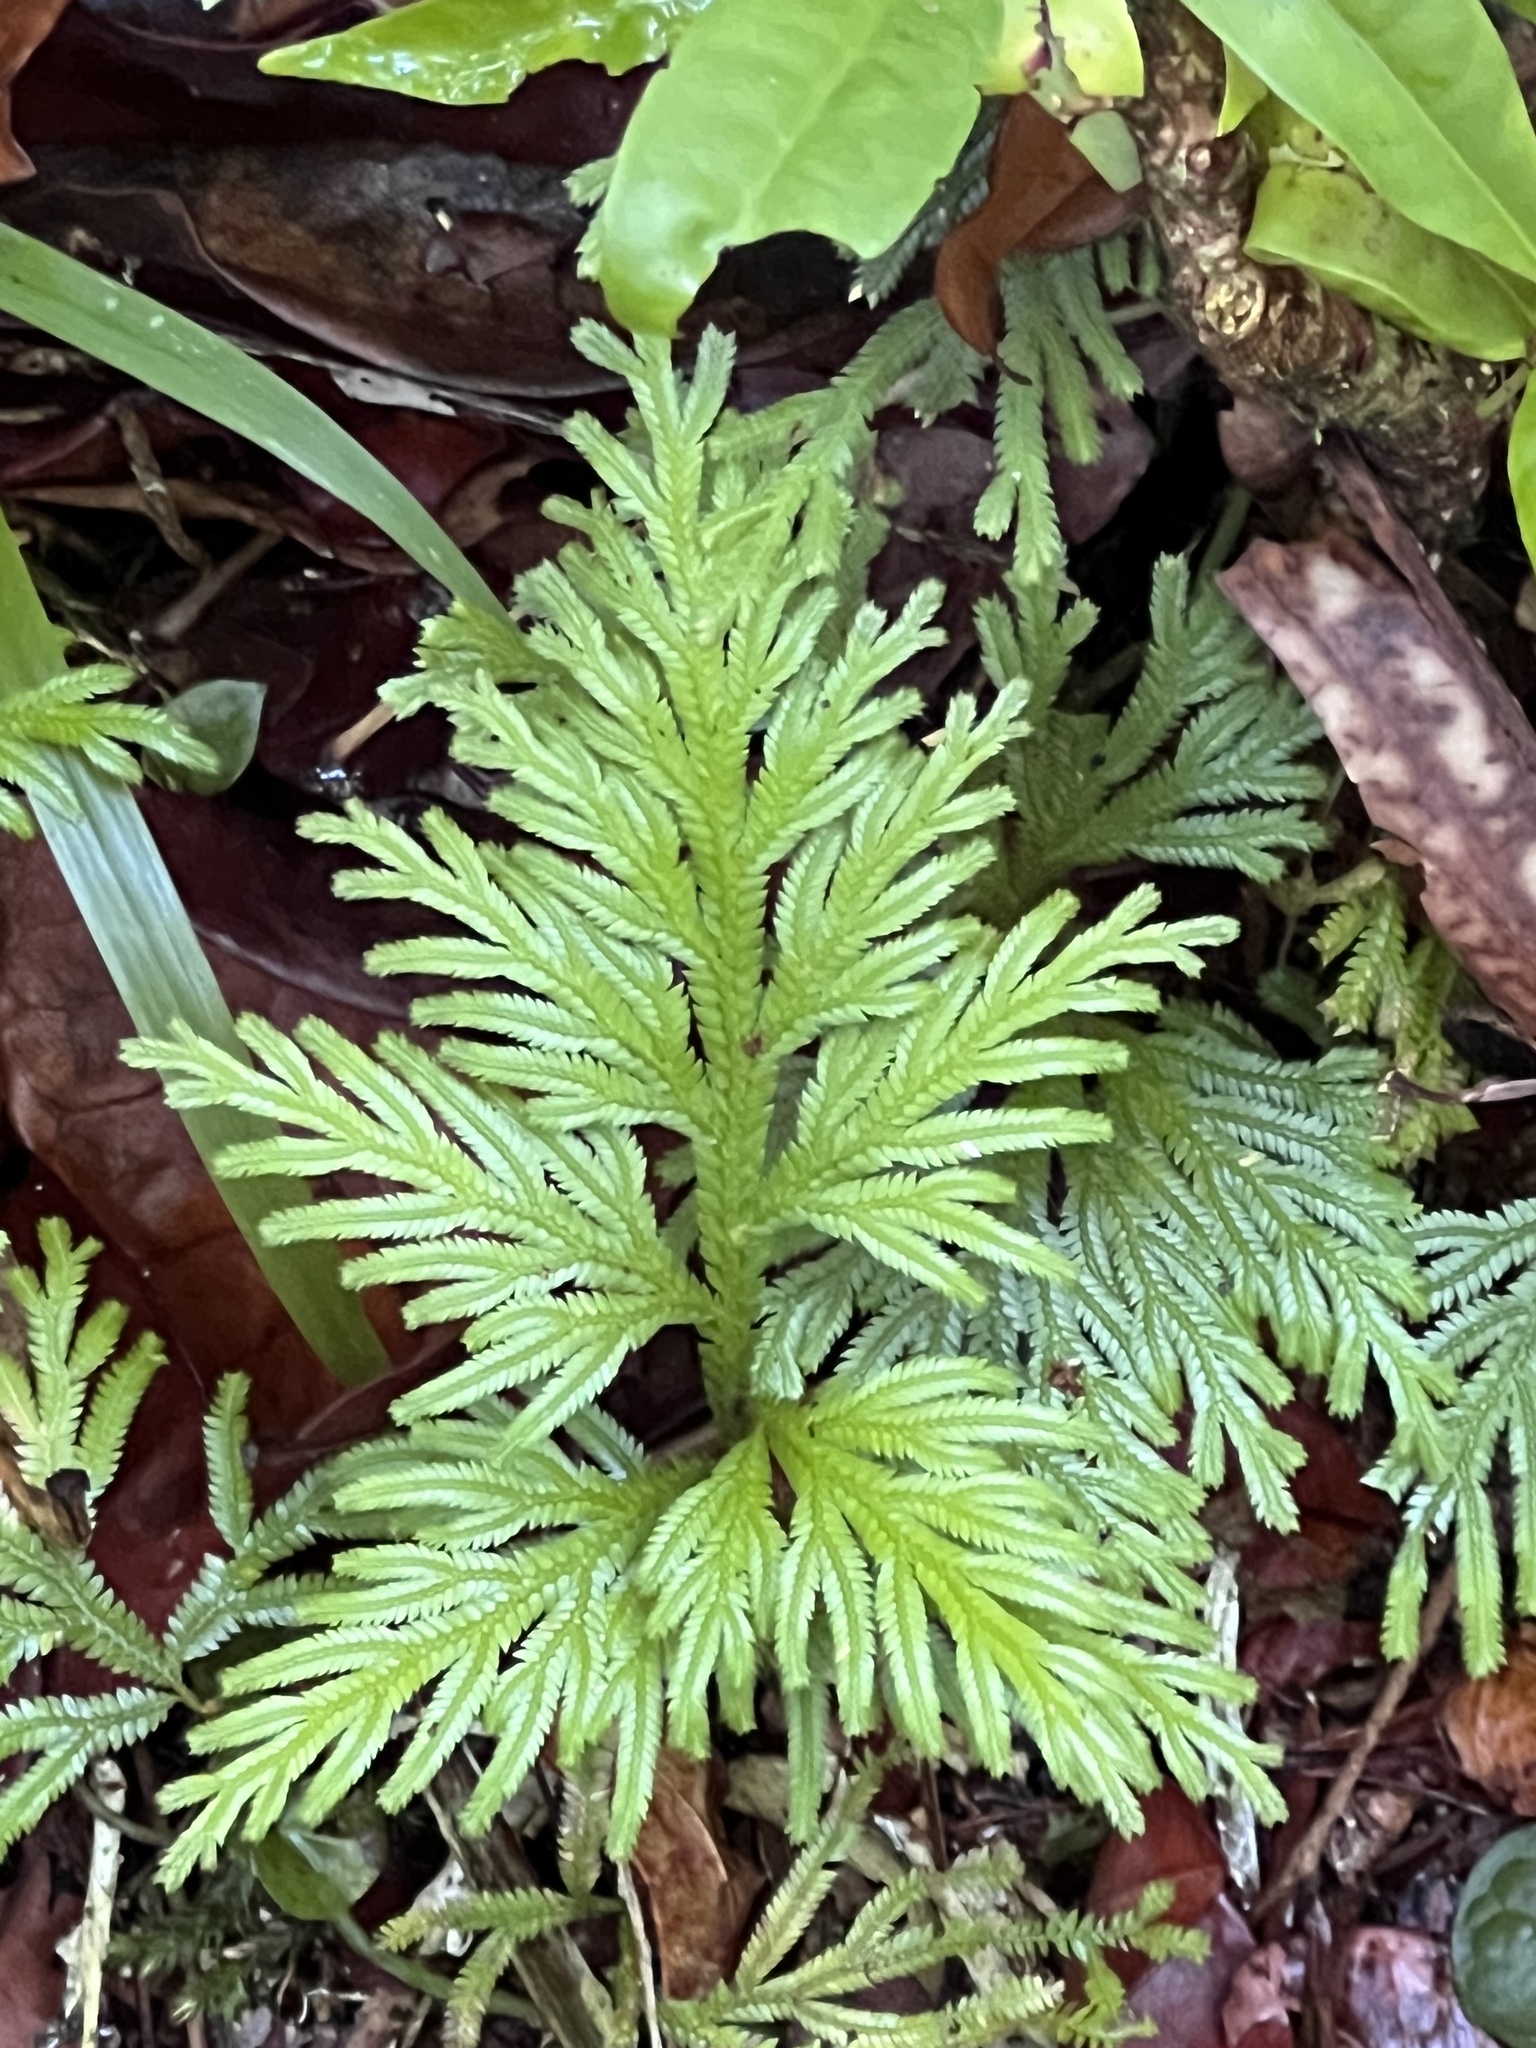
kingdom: Plantae
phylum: Tracheophyta
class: Lycopodiopsida
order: Selaginellales
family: Selaginellaceae
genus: Selaginella
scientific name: Selaginella longipinna
